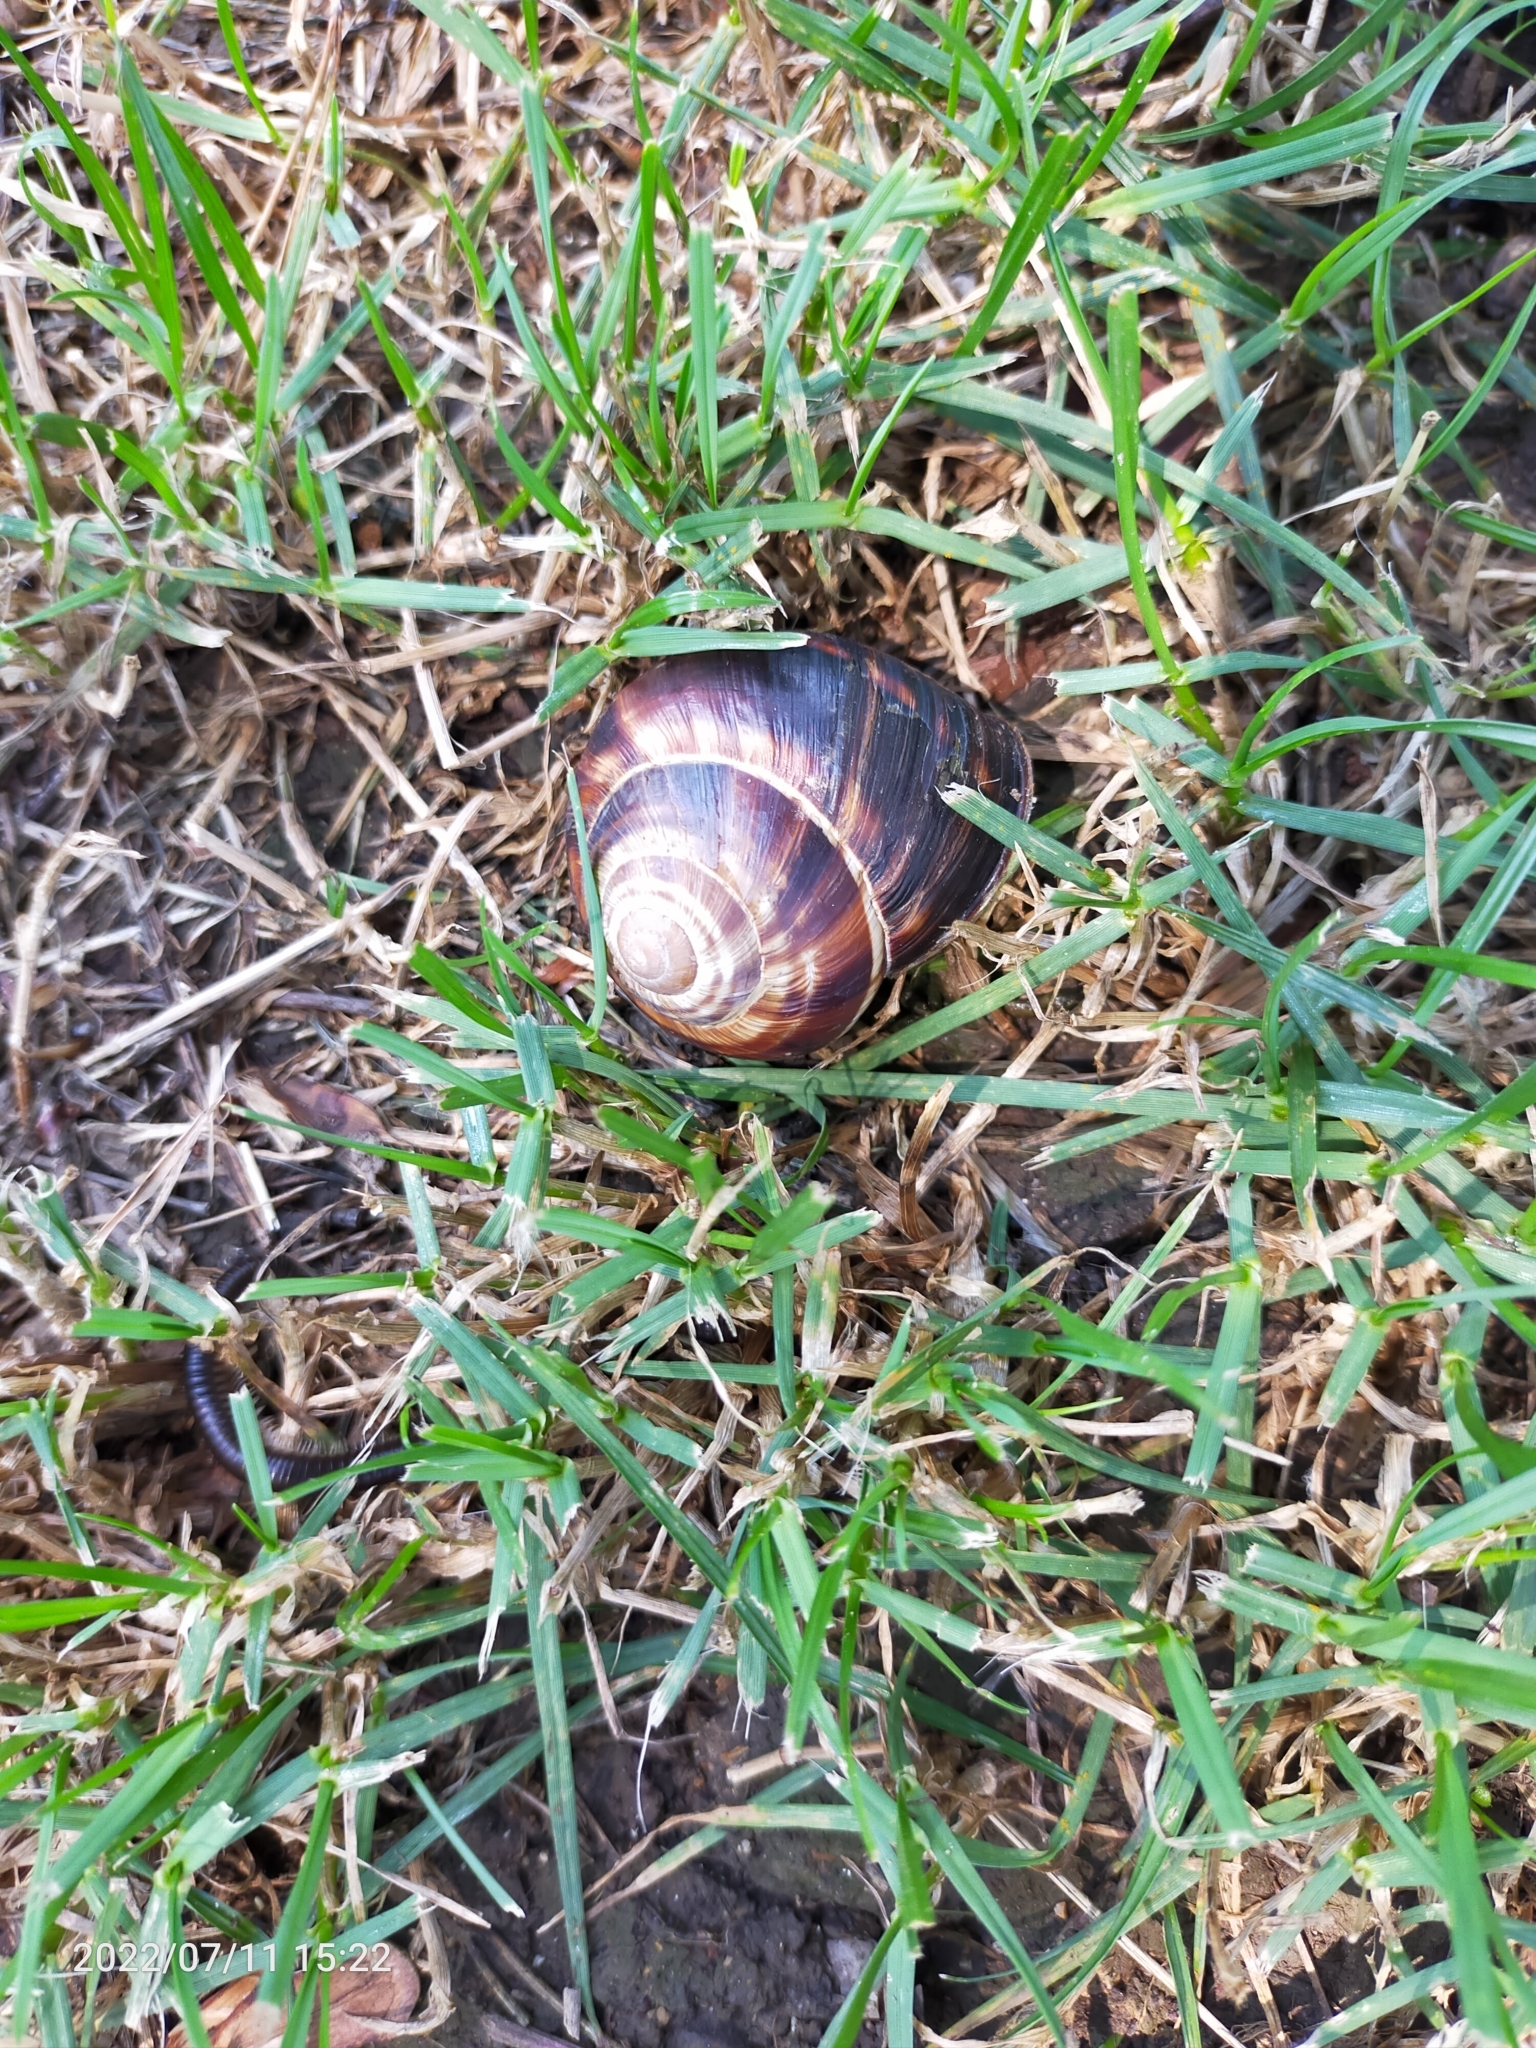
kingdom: Animalia
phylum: Mollusca
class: Gastropoda
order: Stylommatophora
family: Helicidae
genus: Helix
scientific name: Helix lucorum
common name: Turkish snail
